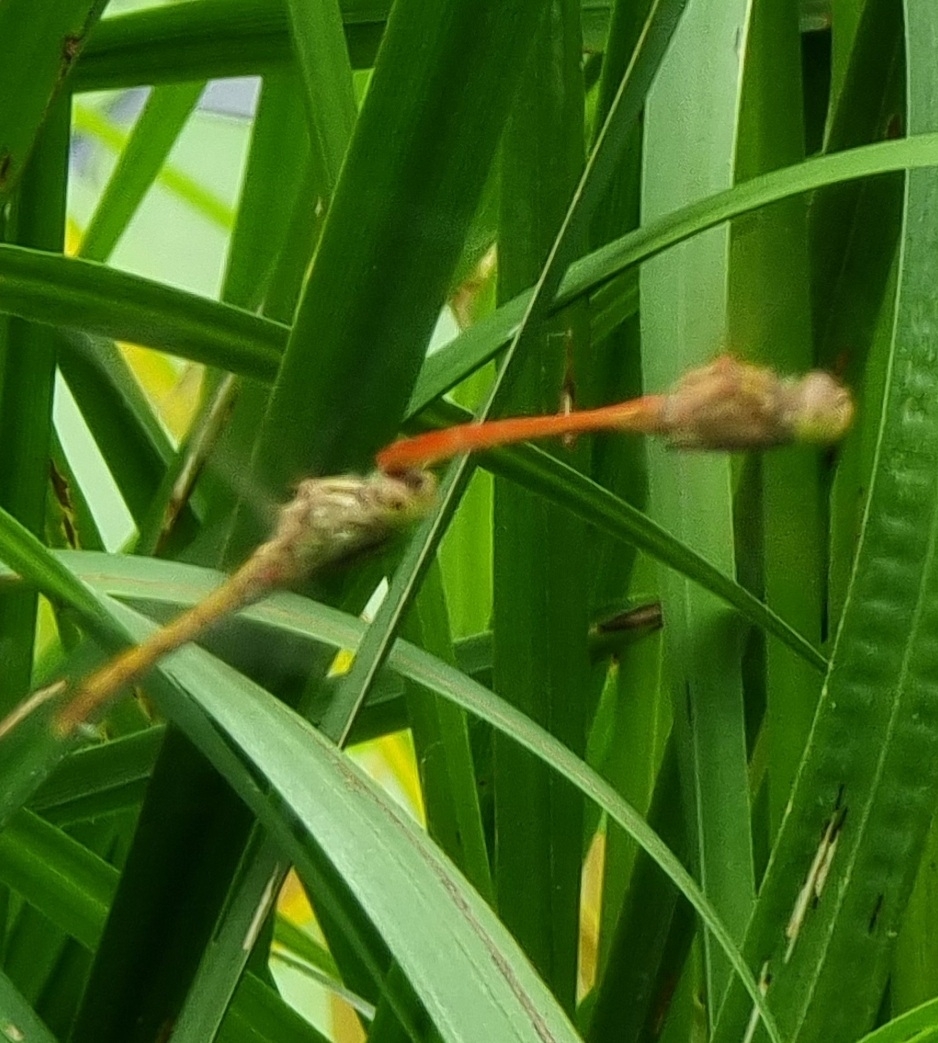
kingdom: Animalia
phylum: Arthropoda
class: Insecta
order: Odonata
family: Libellulidae
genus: Sympetrum
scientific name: Sympetrum meridionale
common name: Southern darter
